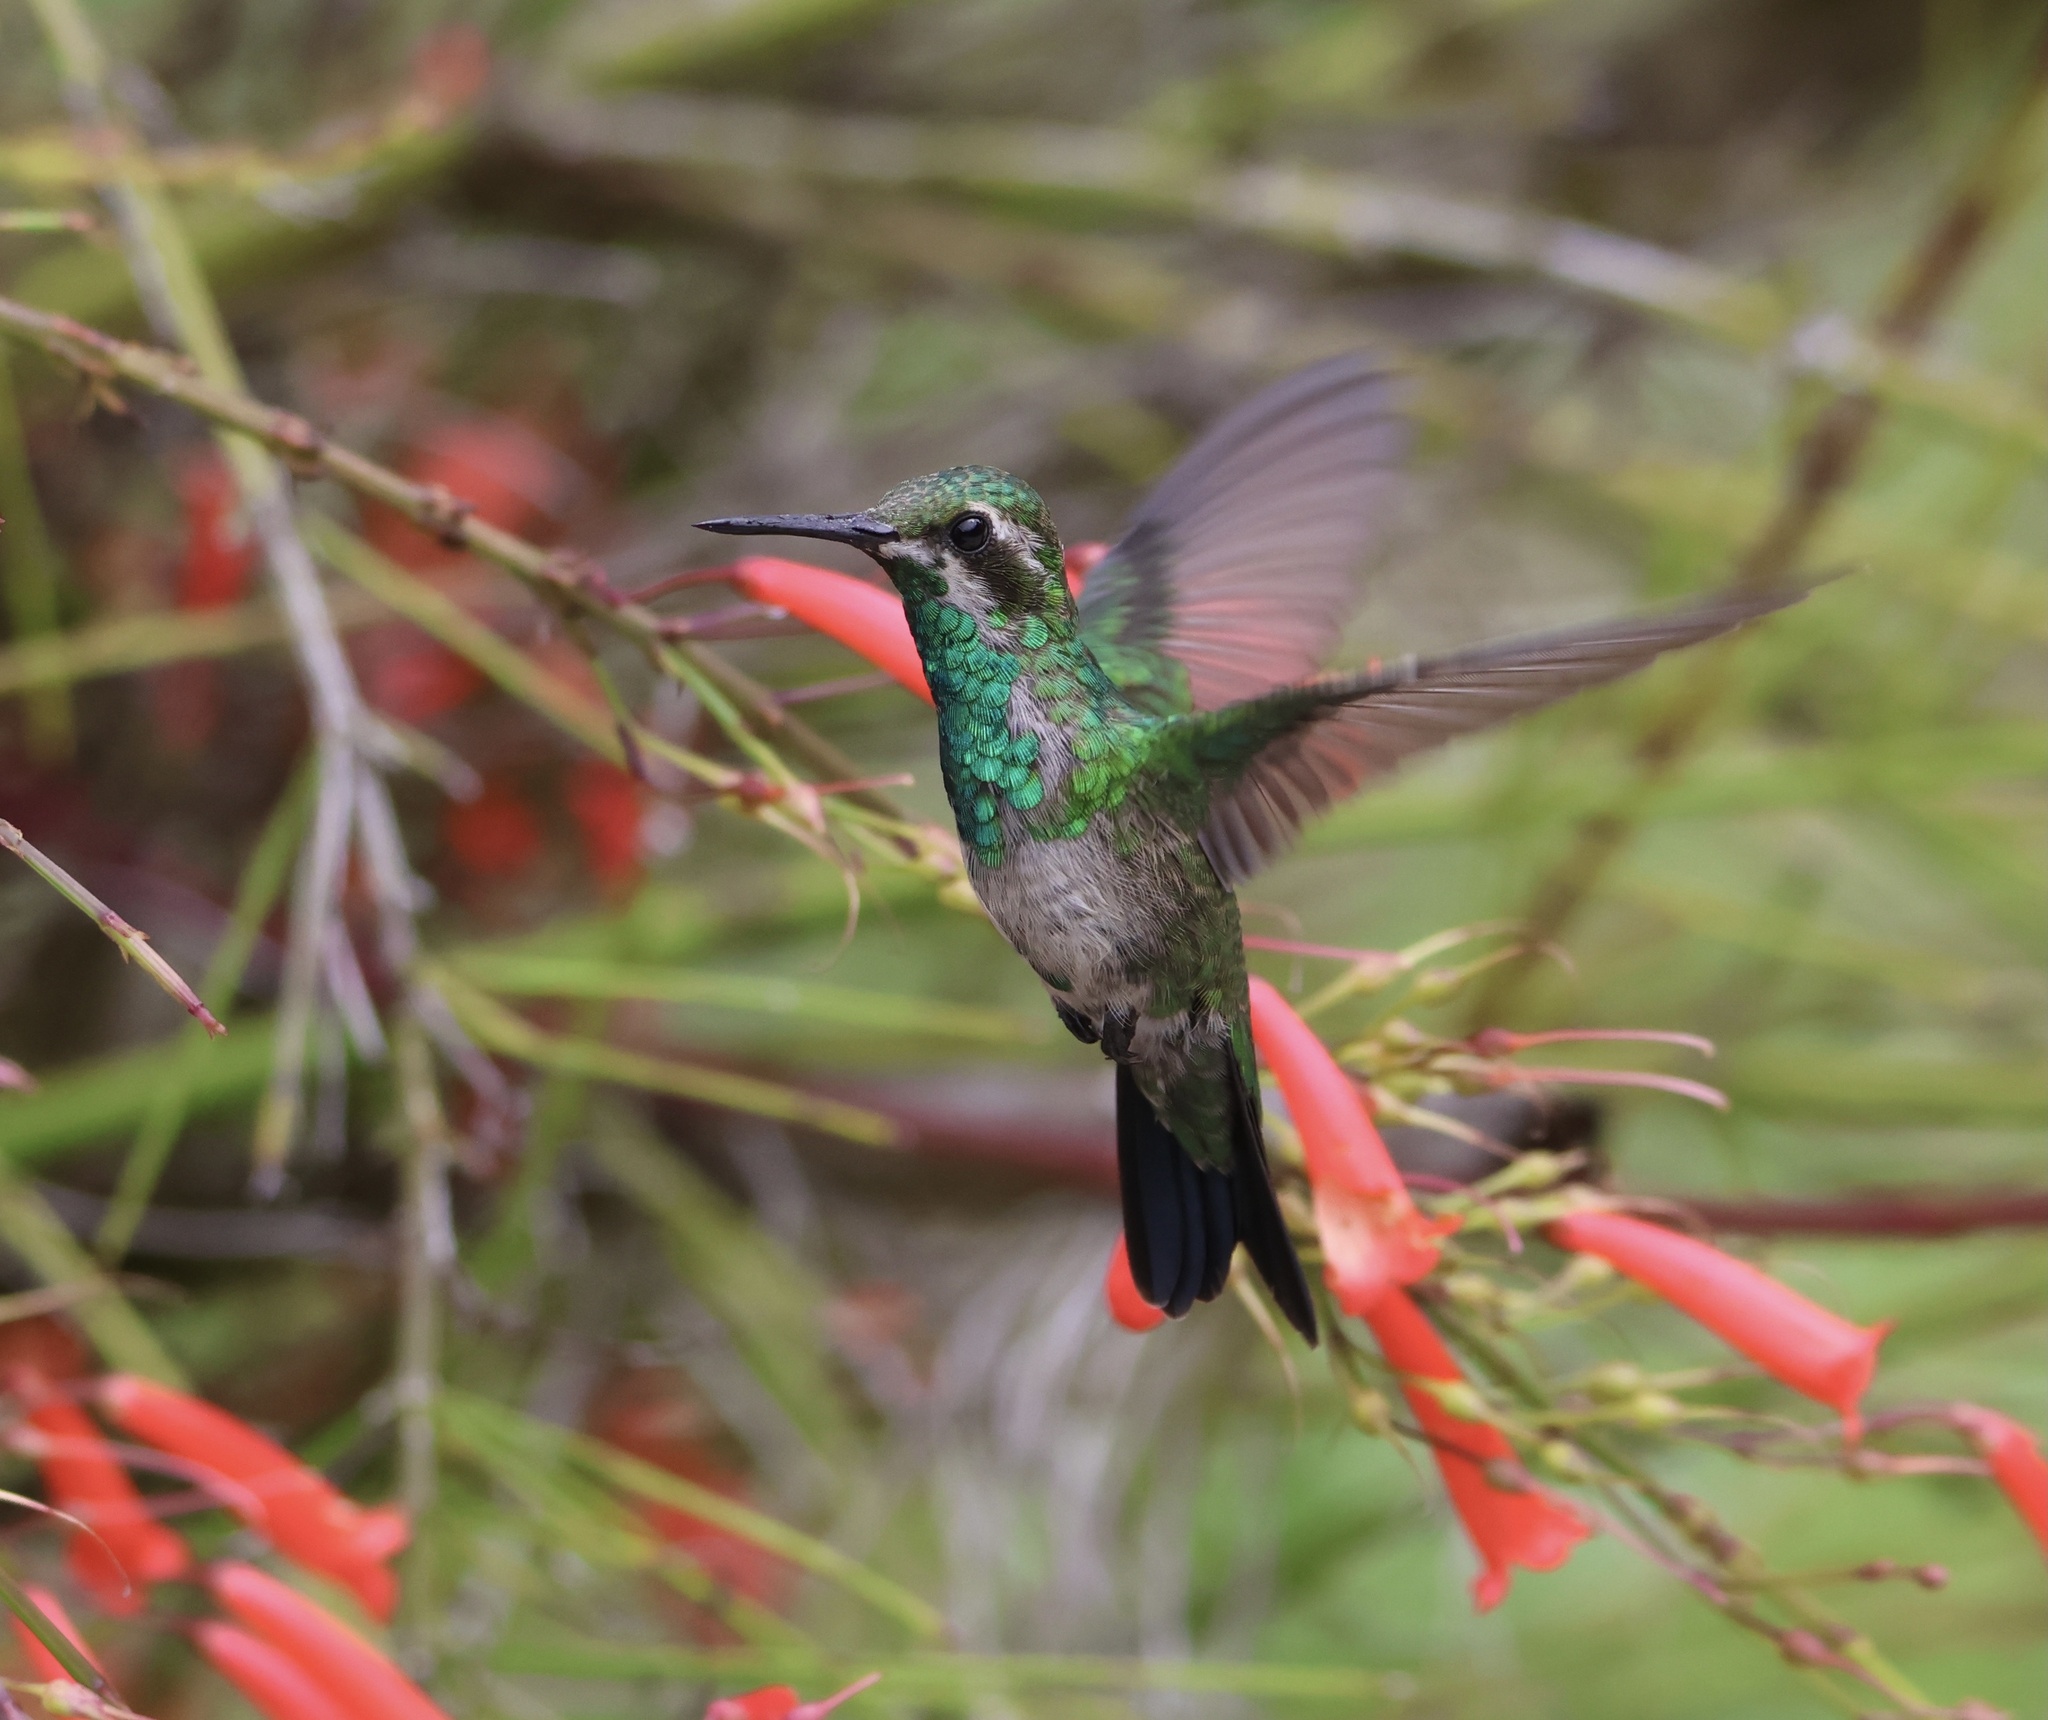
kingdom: Animalia
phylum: Chordata
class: Aves
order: Apodiformes
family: Trochilidae
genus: Chlorostilbon
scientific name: Chlorostilbon assimilis
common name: Garden emerald
